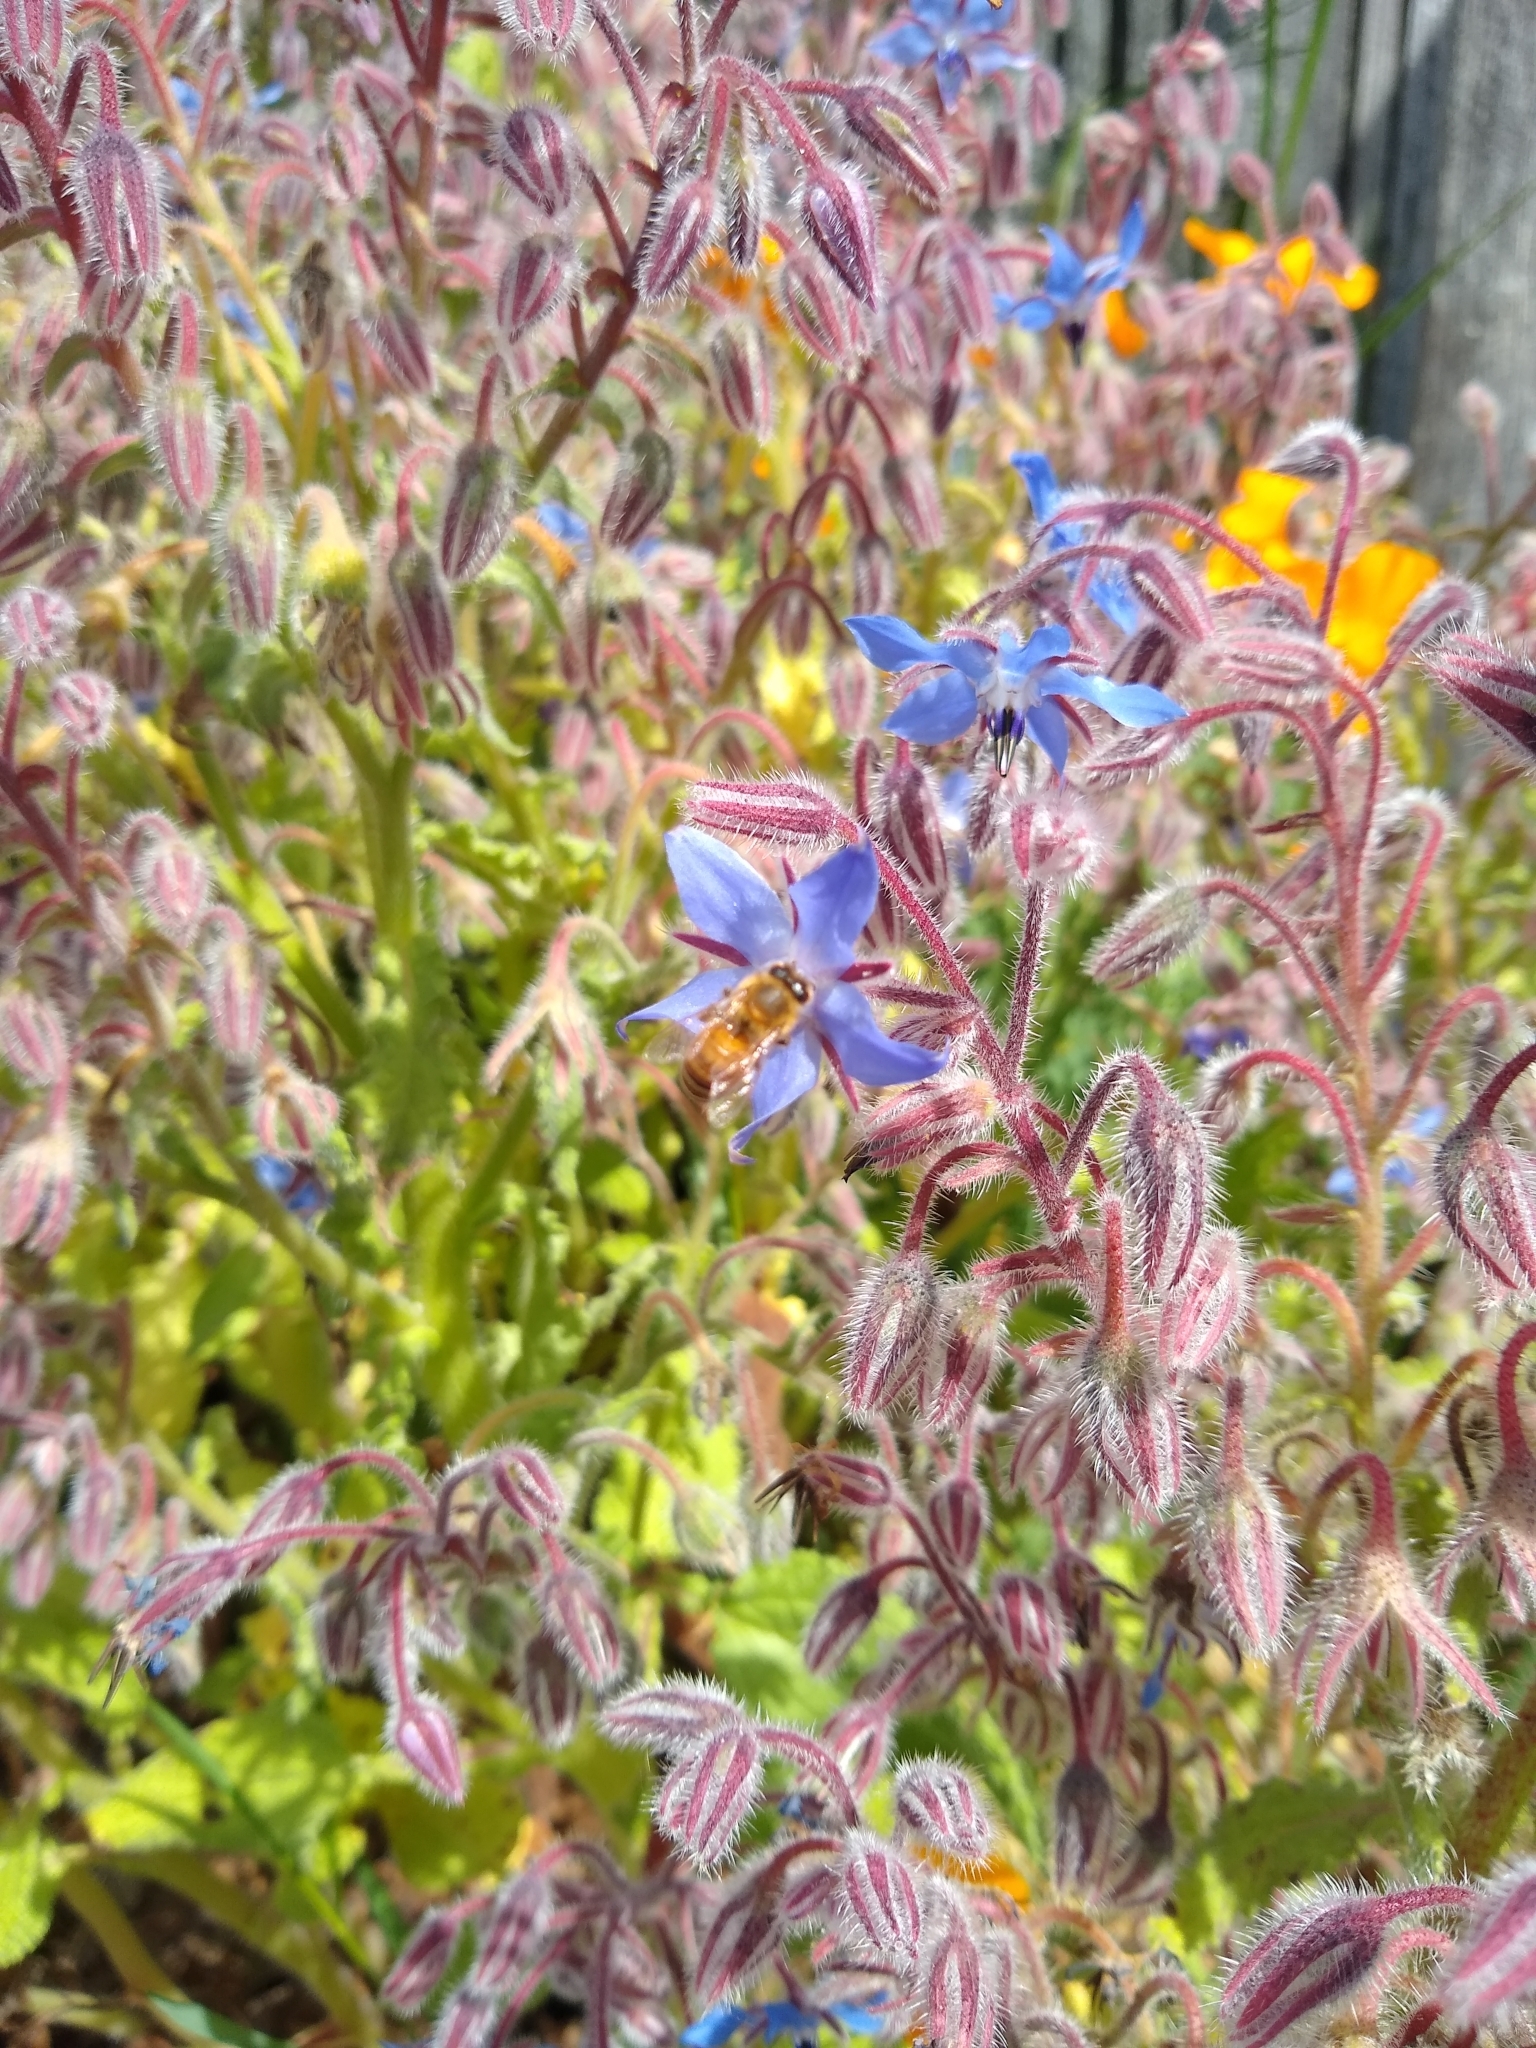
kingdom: Animalia
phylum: Arthropoda
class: Insecta
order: Hymenoptera
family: Apidae
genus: Apis
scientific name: Apis mellifera
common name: Honey bee
